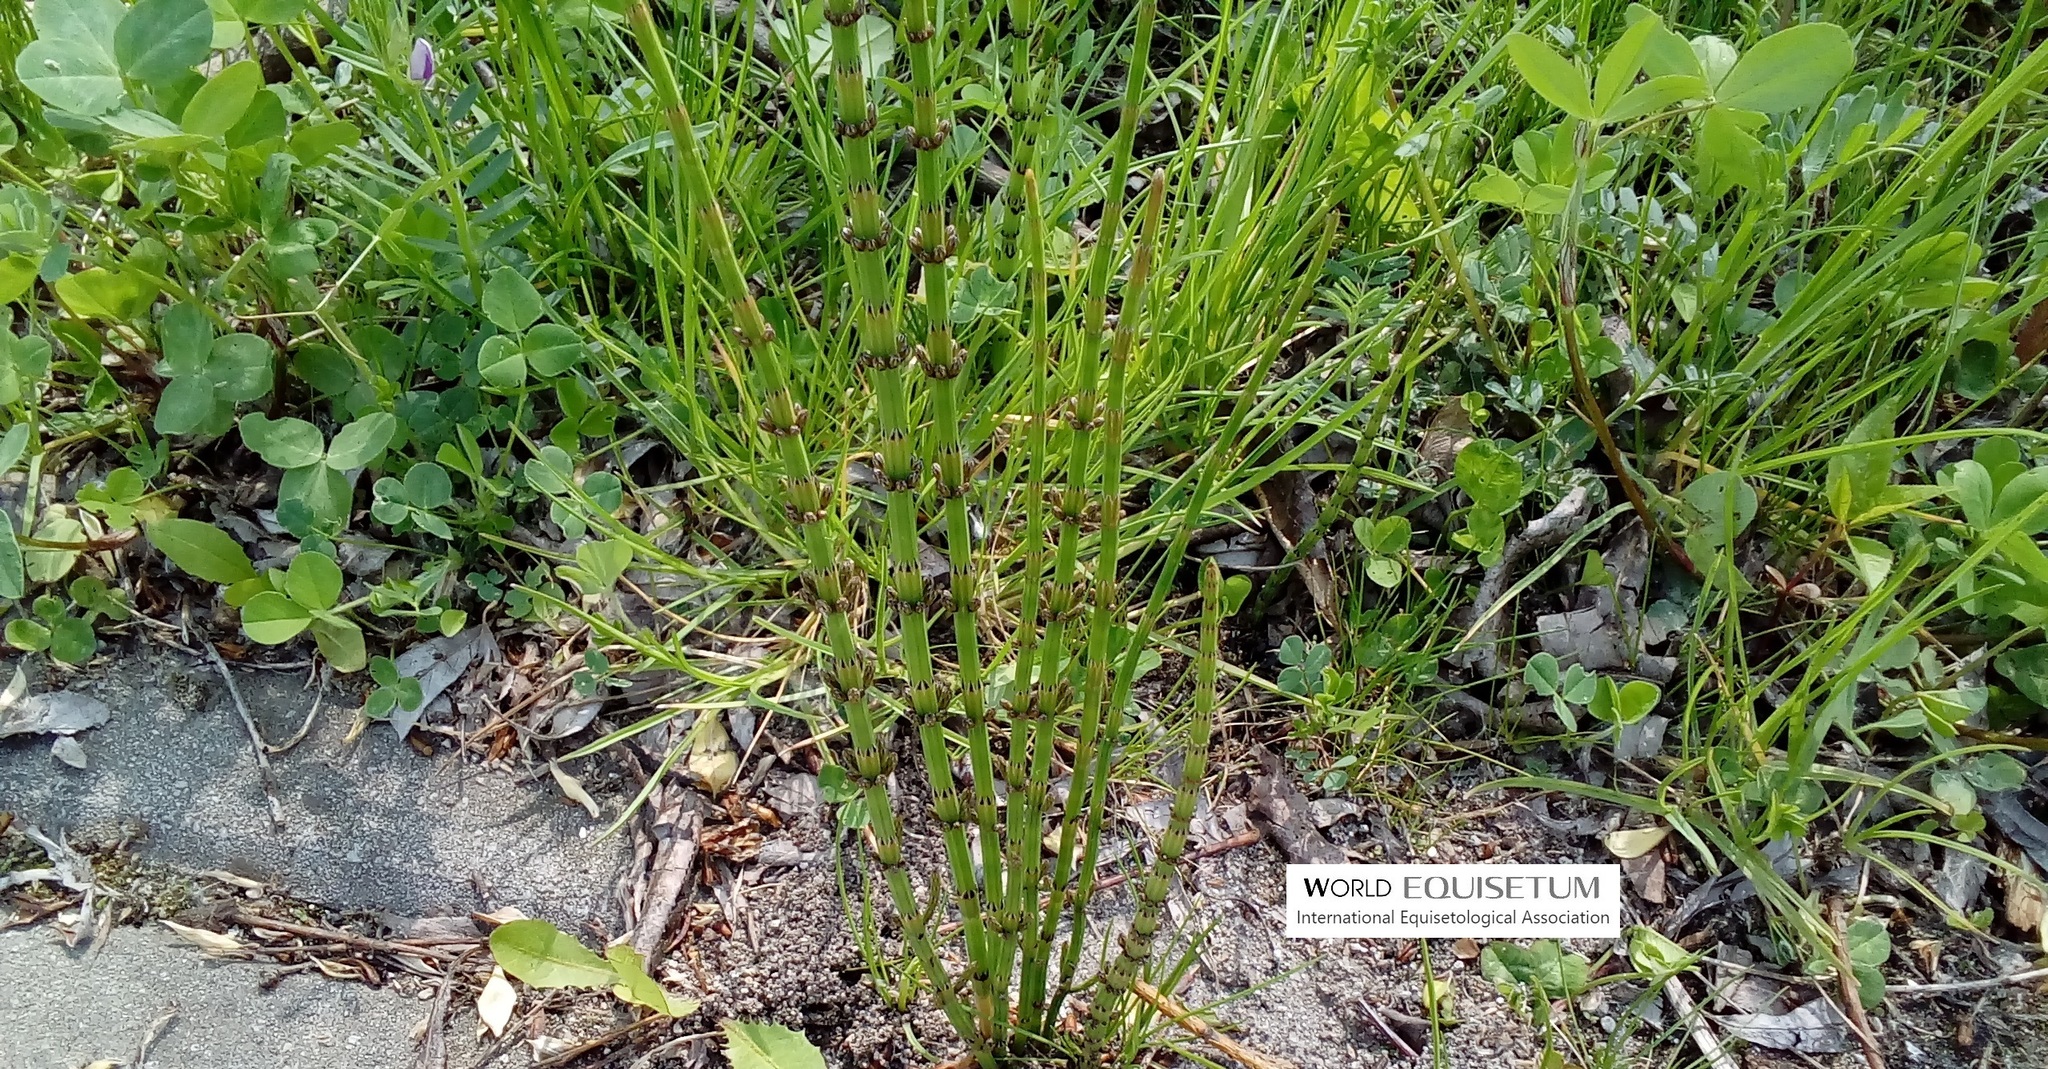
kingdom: Plantae
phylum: Tracheophyta
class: Polypodiopsida
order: Equisetales
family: Equisetaceae
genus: Equisetum
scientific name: Equisetum palustre
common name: Marsh horsetail
